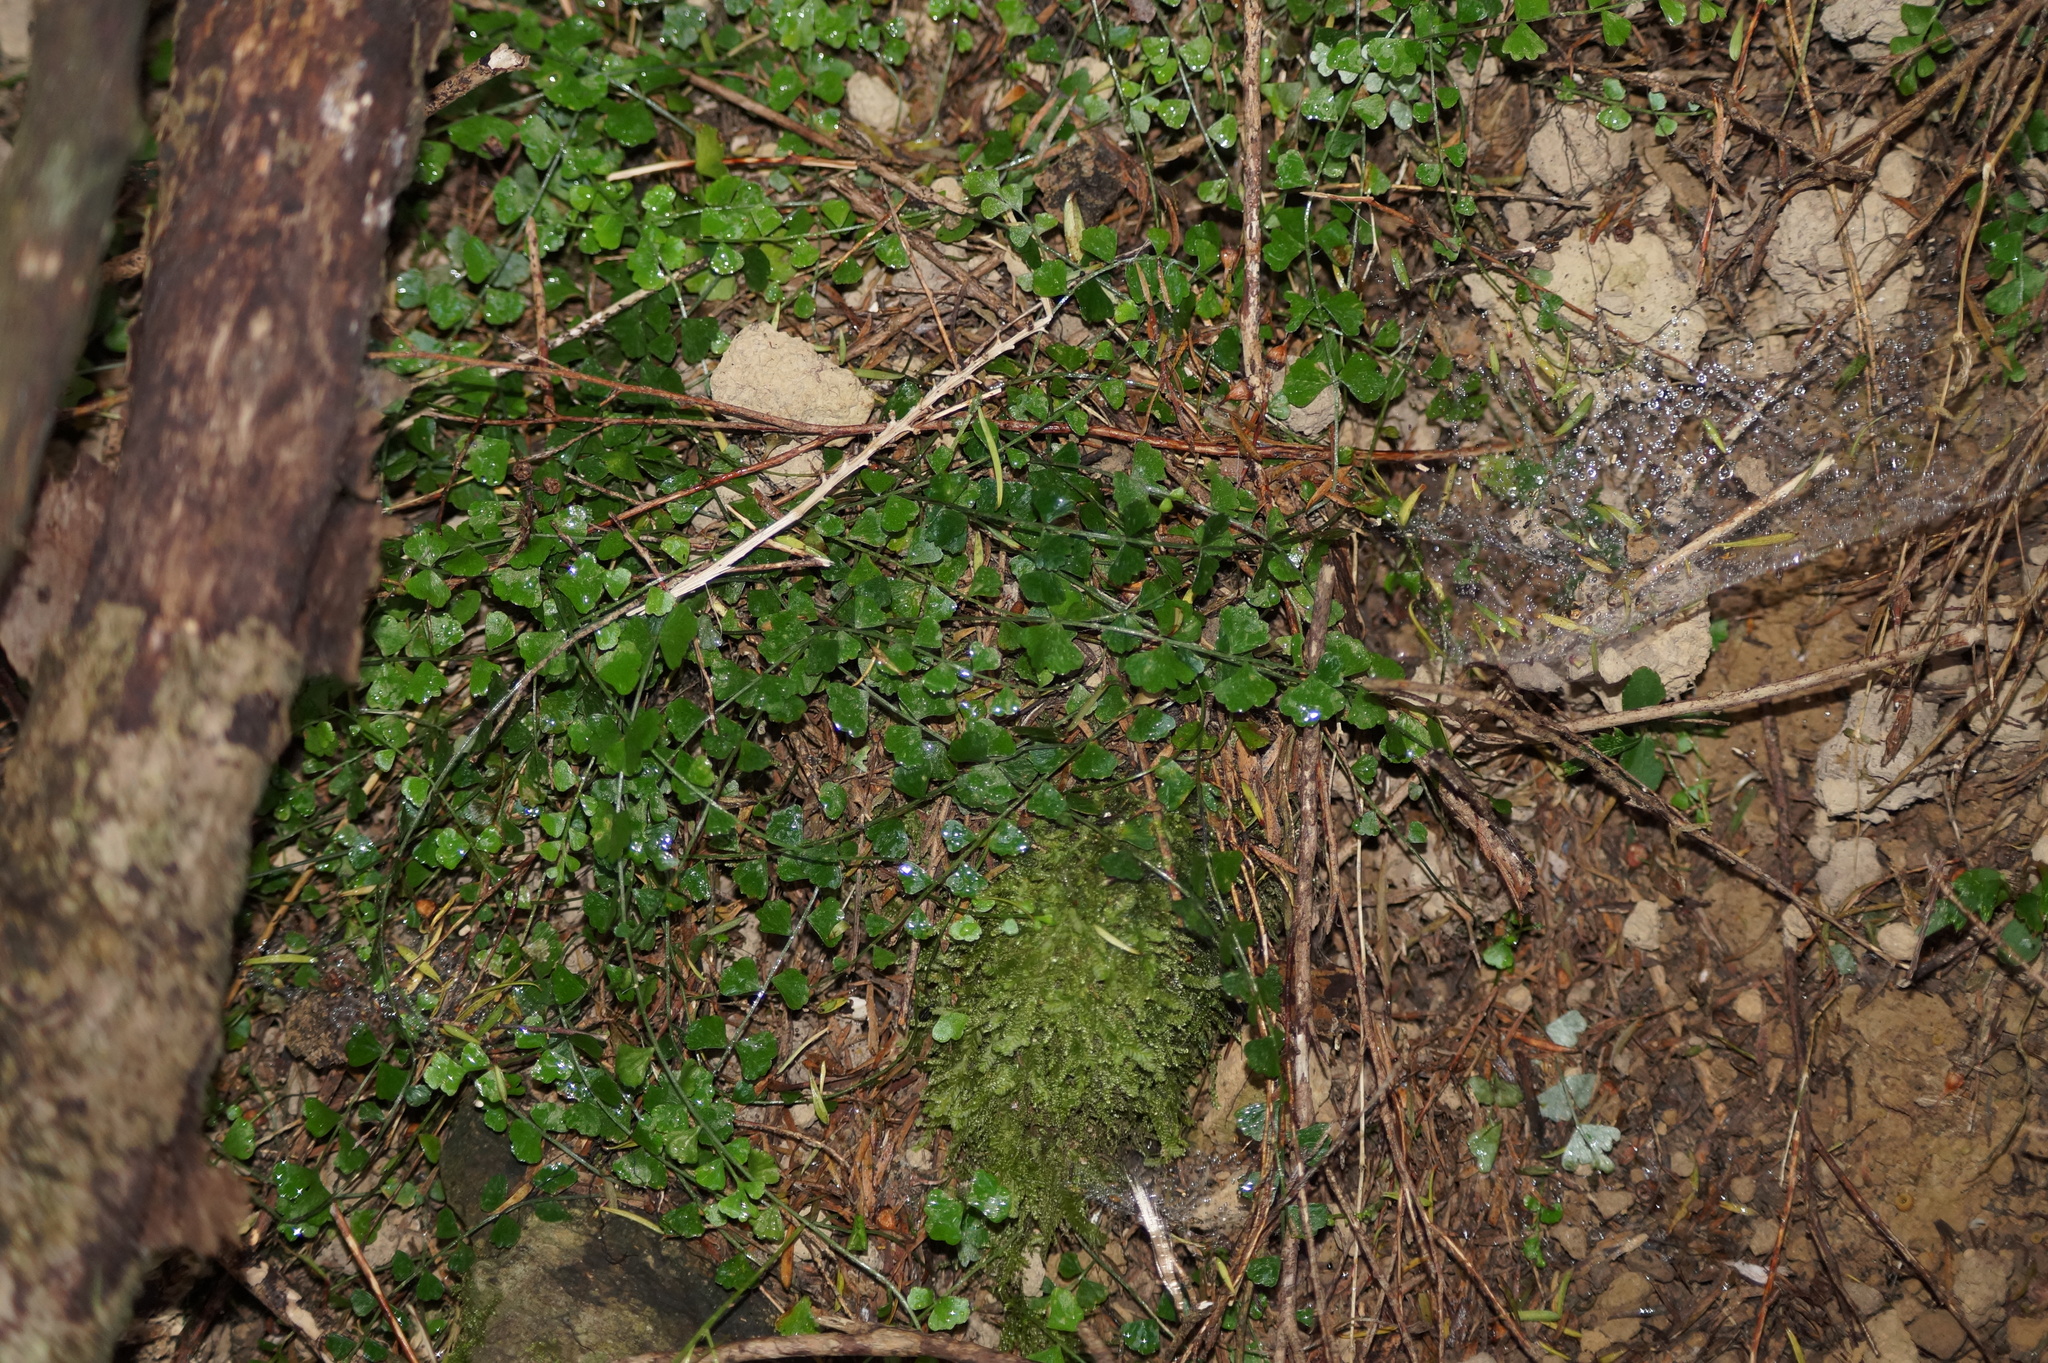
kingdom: Plantae
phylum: Tracheophyta
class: Polypodiopsida
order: Polypodiales
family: Aspleniaceae
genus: Asplenium
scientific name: Asplenium flabellifolium
